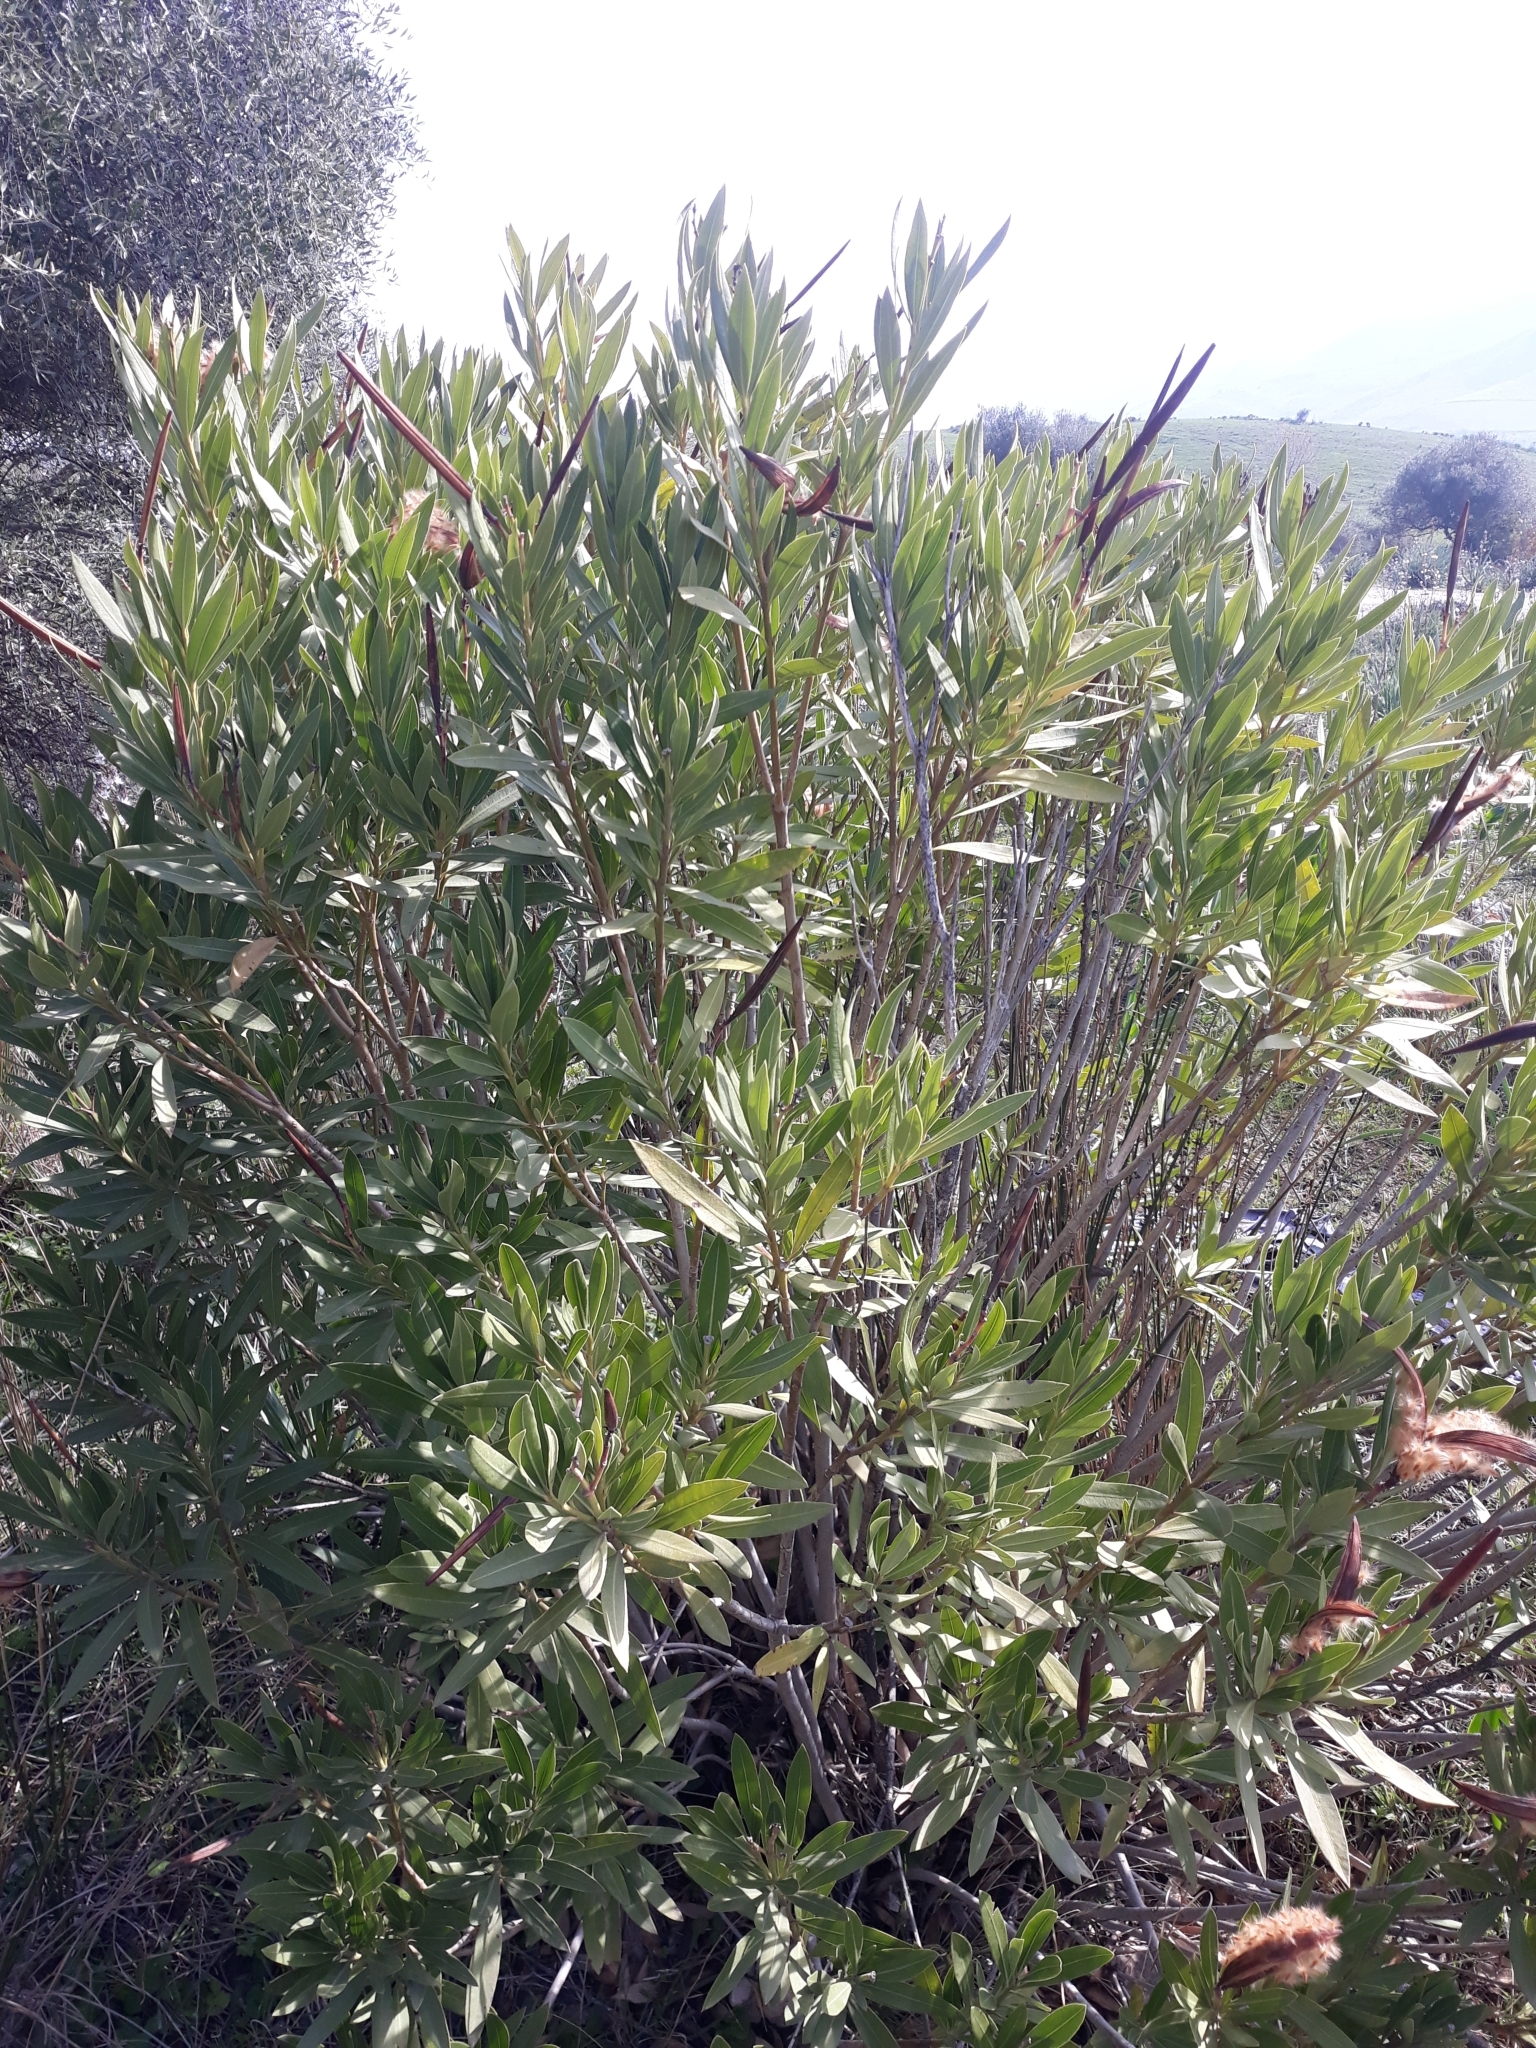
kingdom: Plantae
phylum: Tracheophyta
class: Magnoliopsida
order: Gentianales
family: Apocynaceae
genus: Nerium
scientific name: Nerium oleander
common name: Oleander
